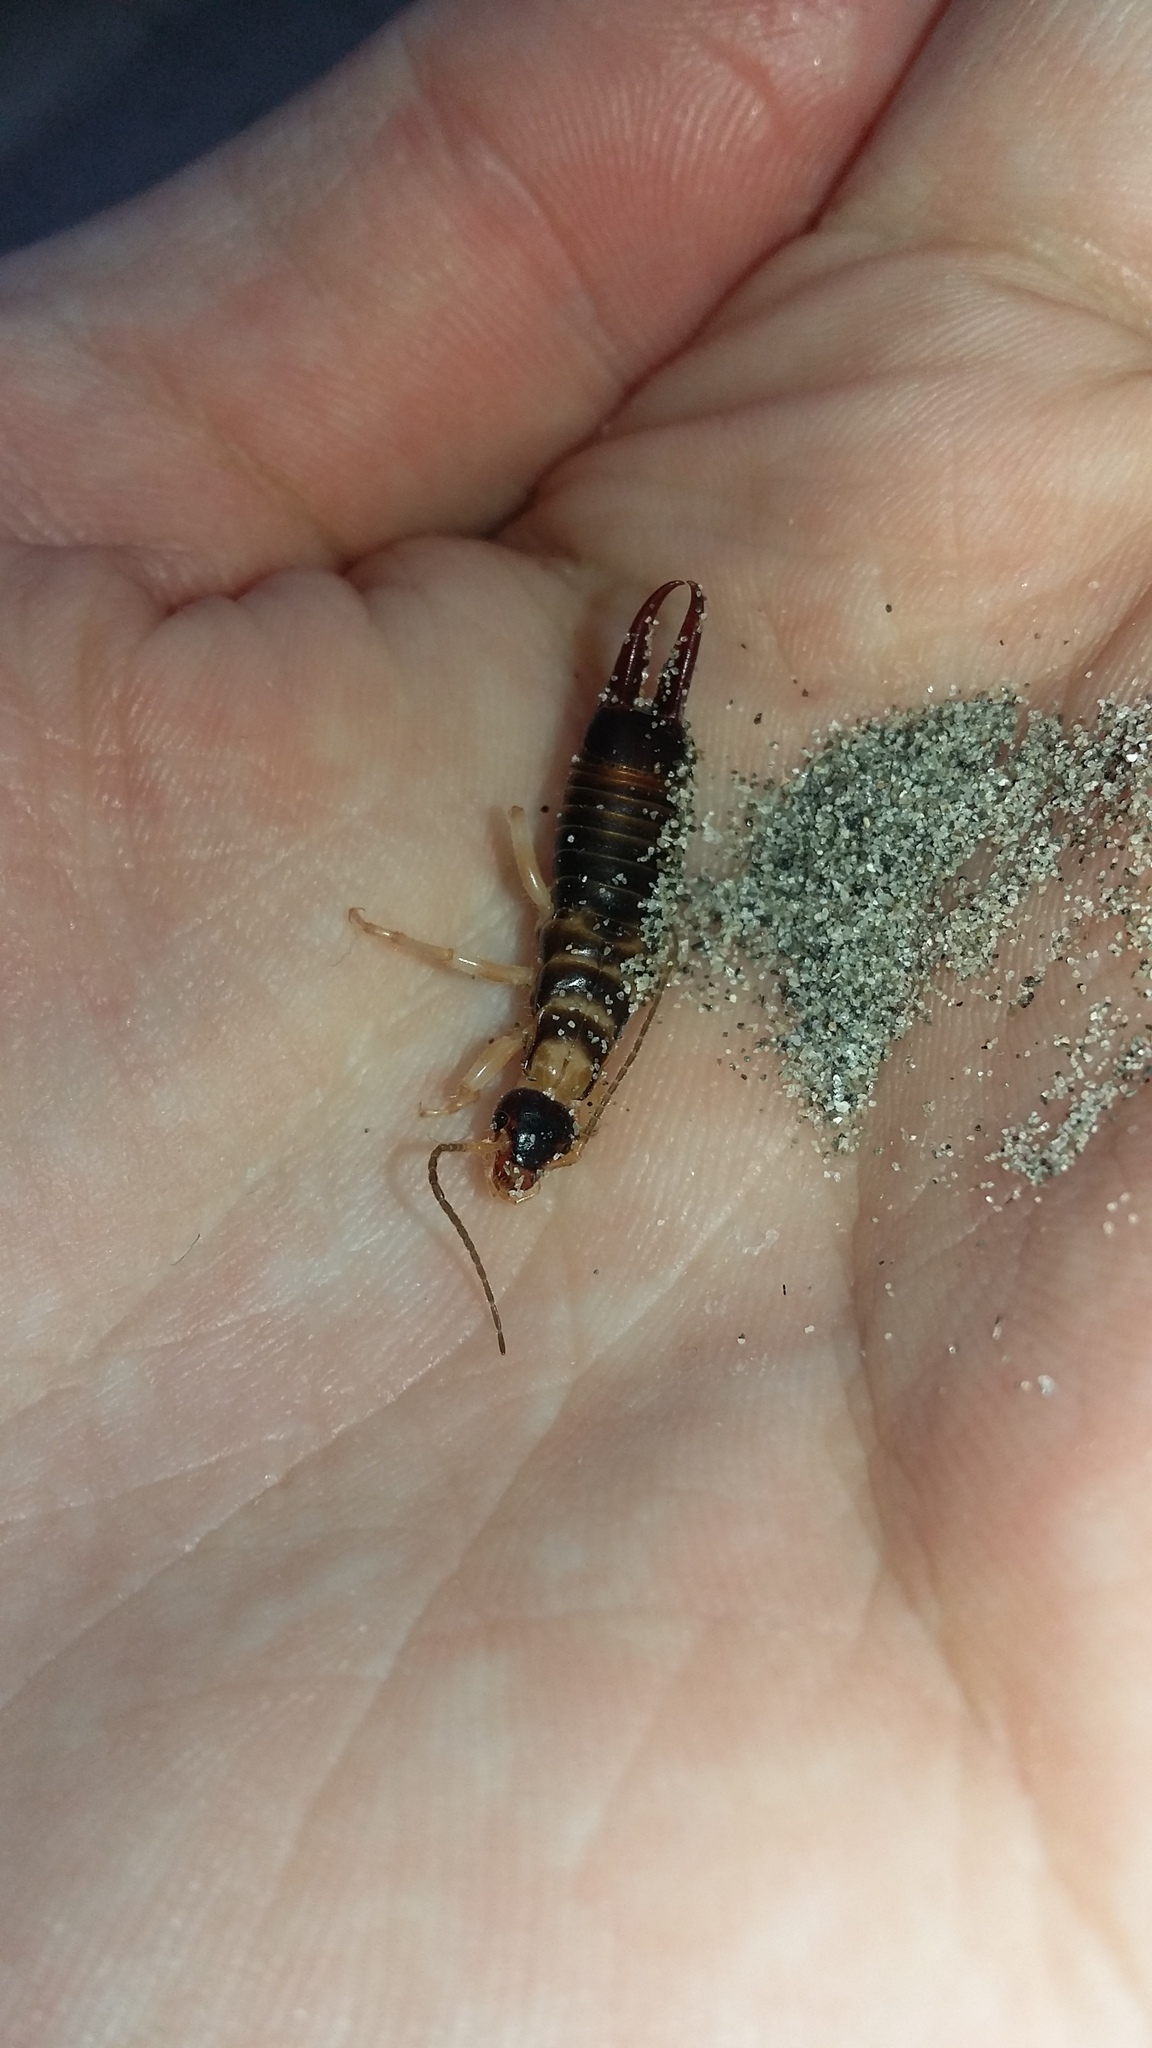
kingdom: Animalia
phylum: Arthropoda
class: Insecta
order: Dermaptera
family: Anisolabididae
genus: Anisolabis
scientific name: Anisolabis littorea
